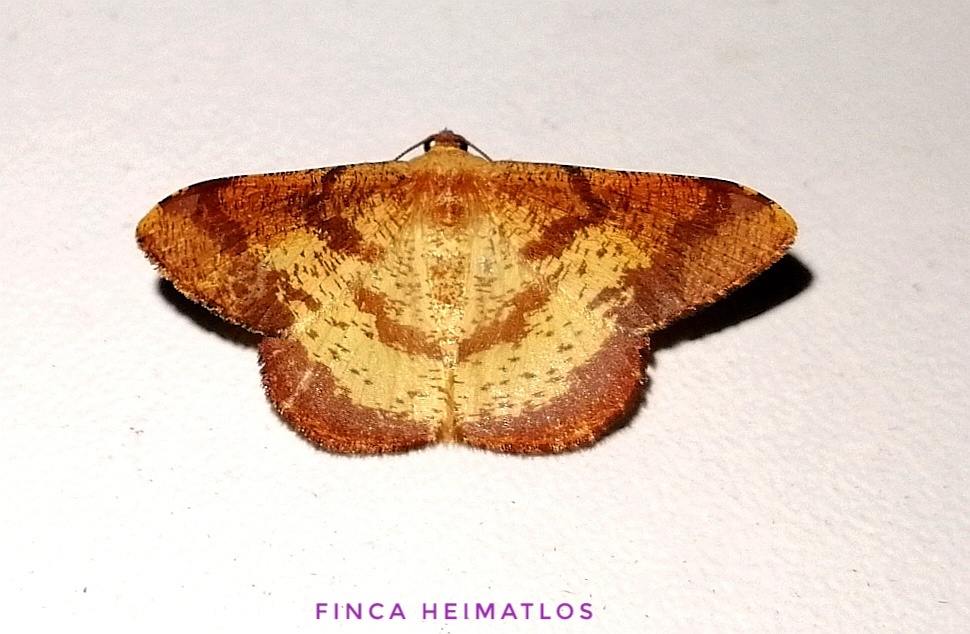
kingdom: Animalia
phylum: Arthropoda
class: Insecta
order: Lepidoptera
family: Geometridae
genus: Pyrinia
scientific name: Pyrinia agonisaria
